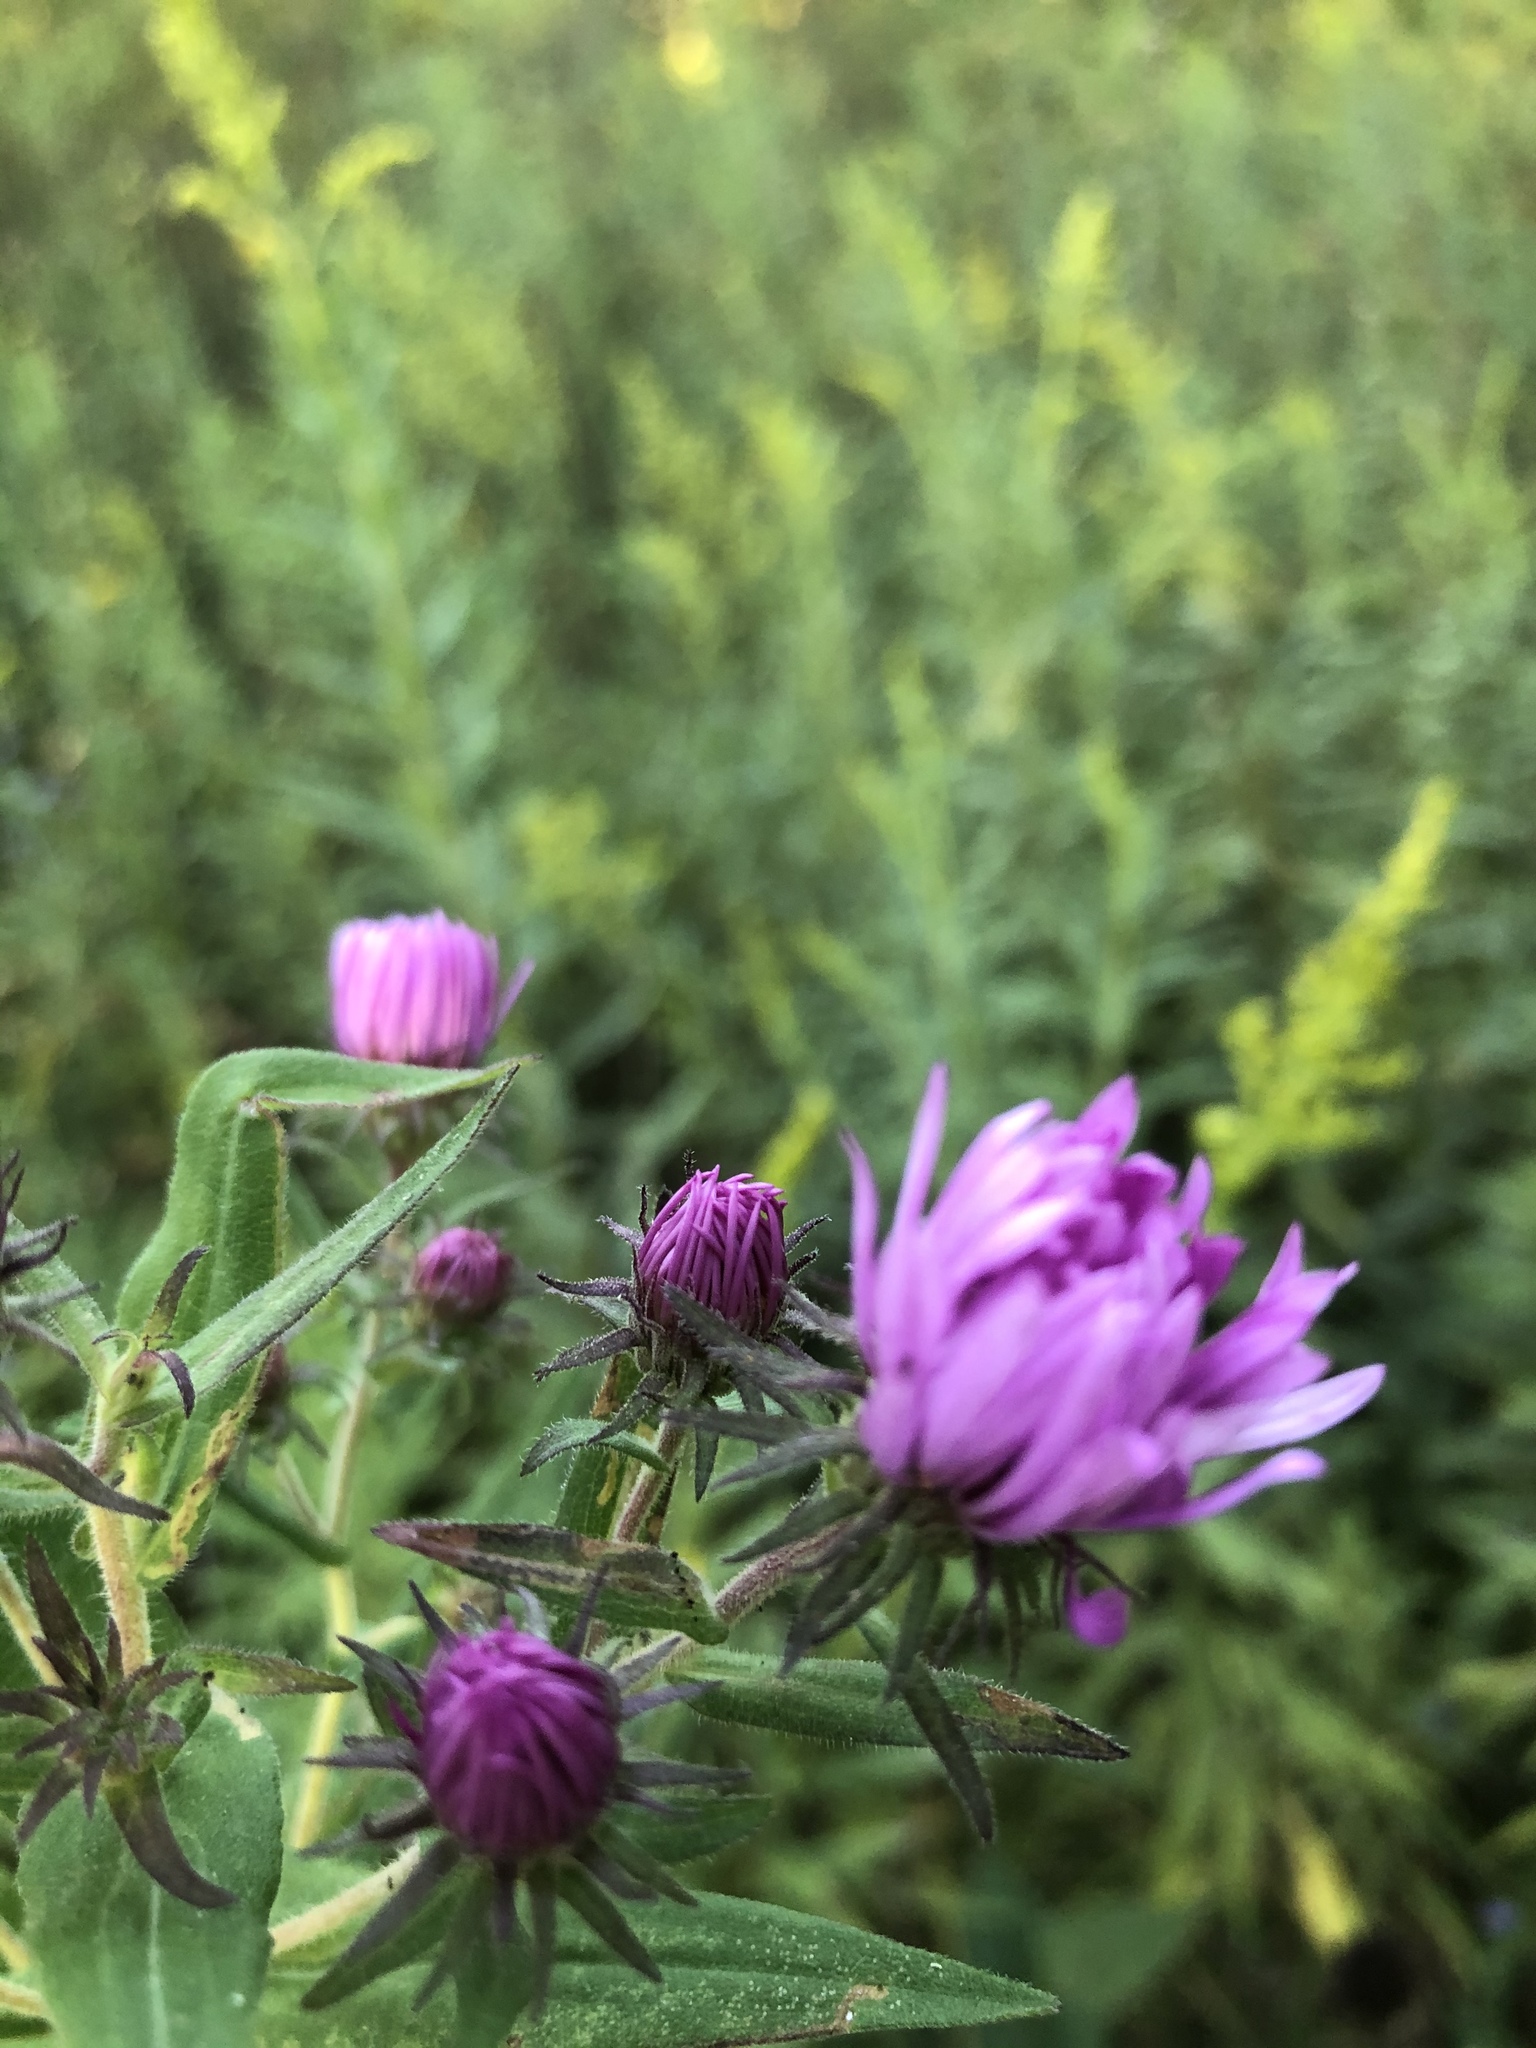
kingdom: Plantae
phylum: Tracheophyta
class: Magnoliopsida
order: Asterales
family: Asteraceae
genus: Symphyotrichum
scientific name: Symphyotrichum novae-angliae
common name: Michaelmas daisy
